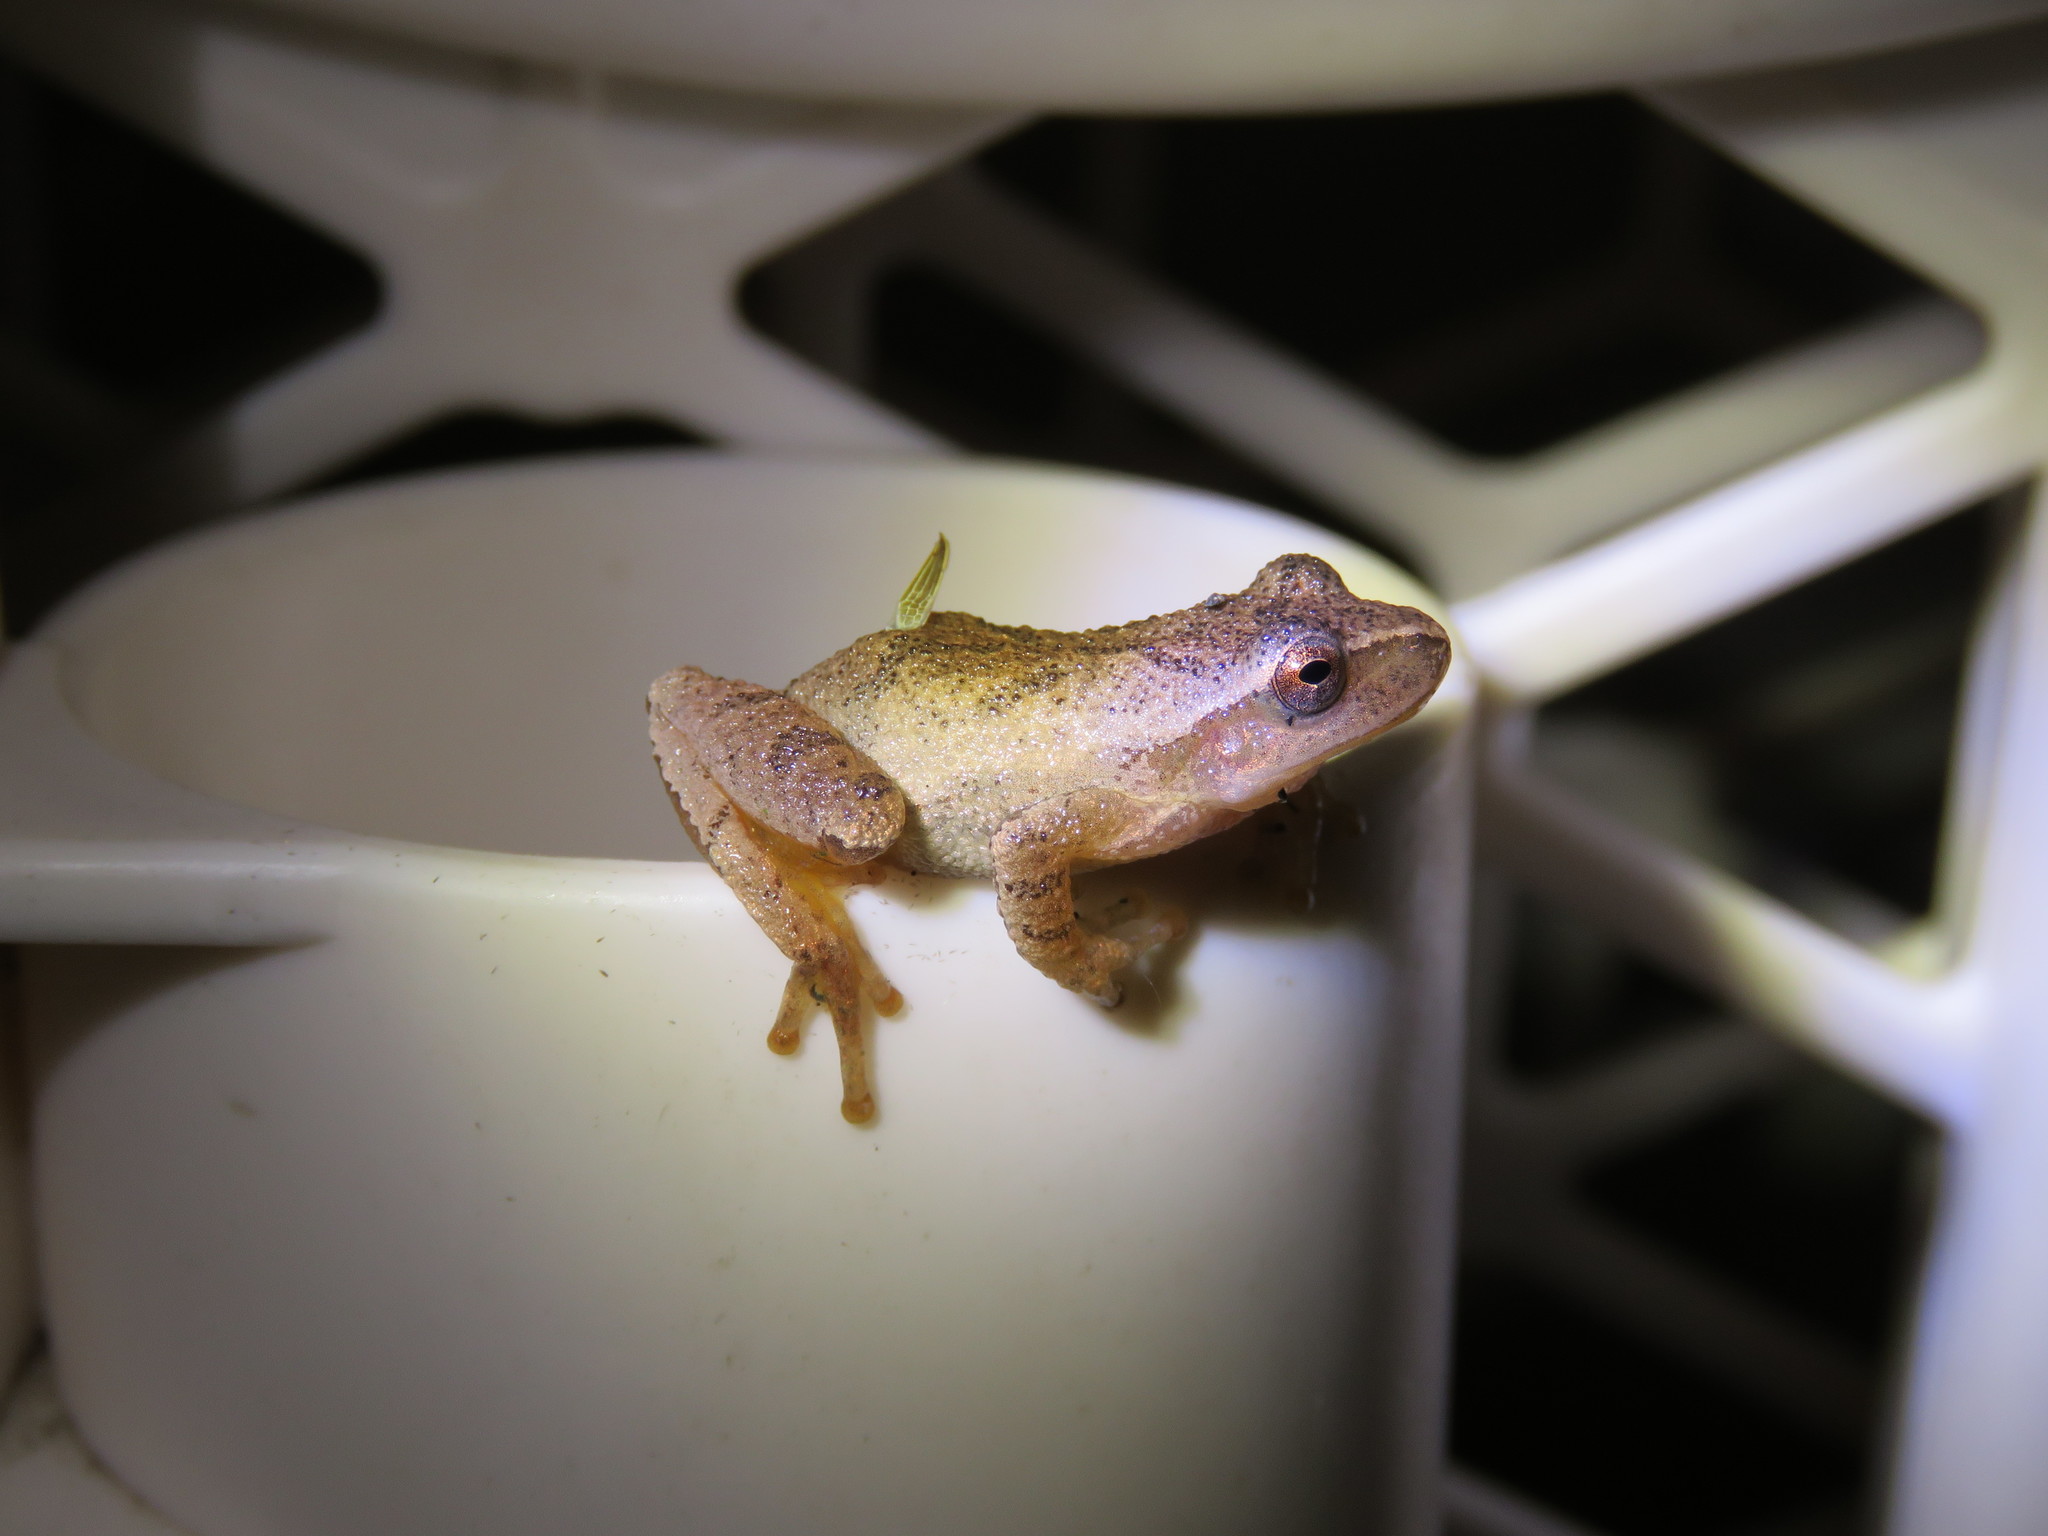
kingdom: Animalia
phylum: Chordata
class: Amphibia
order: Anura
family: Hylidae
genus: Pseudacris
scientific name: Pseudacris crucifer
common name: Spring peeper
